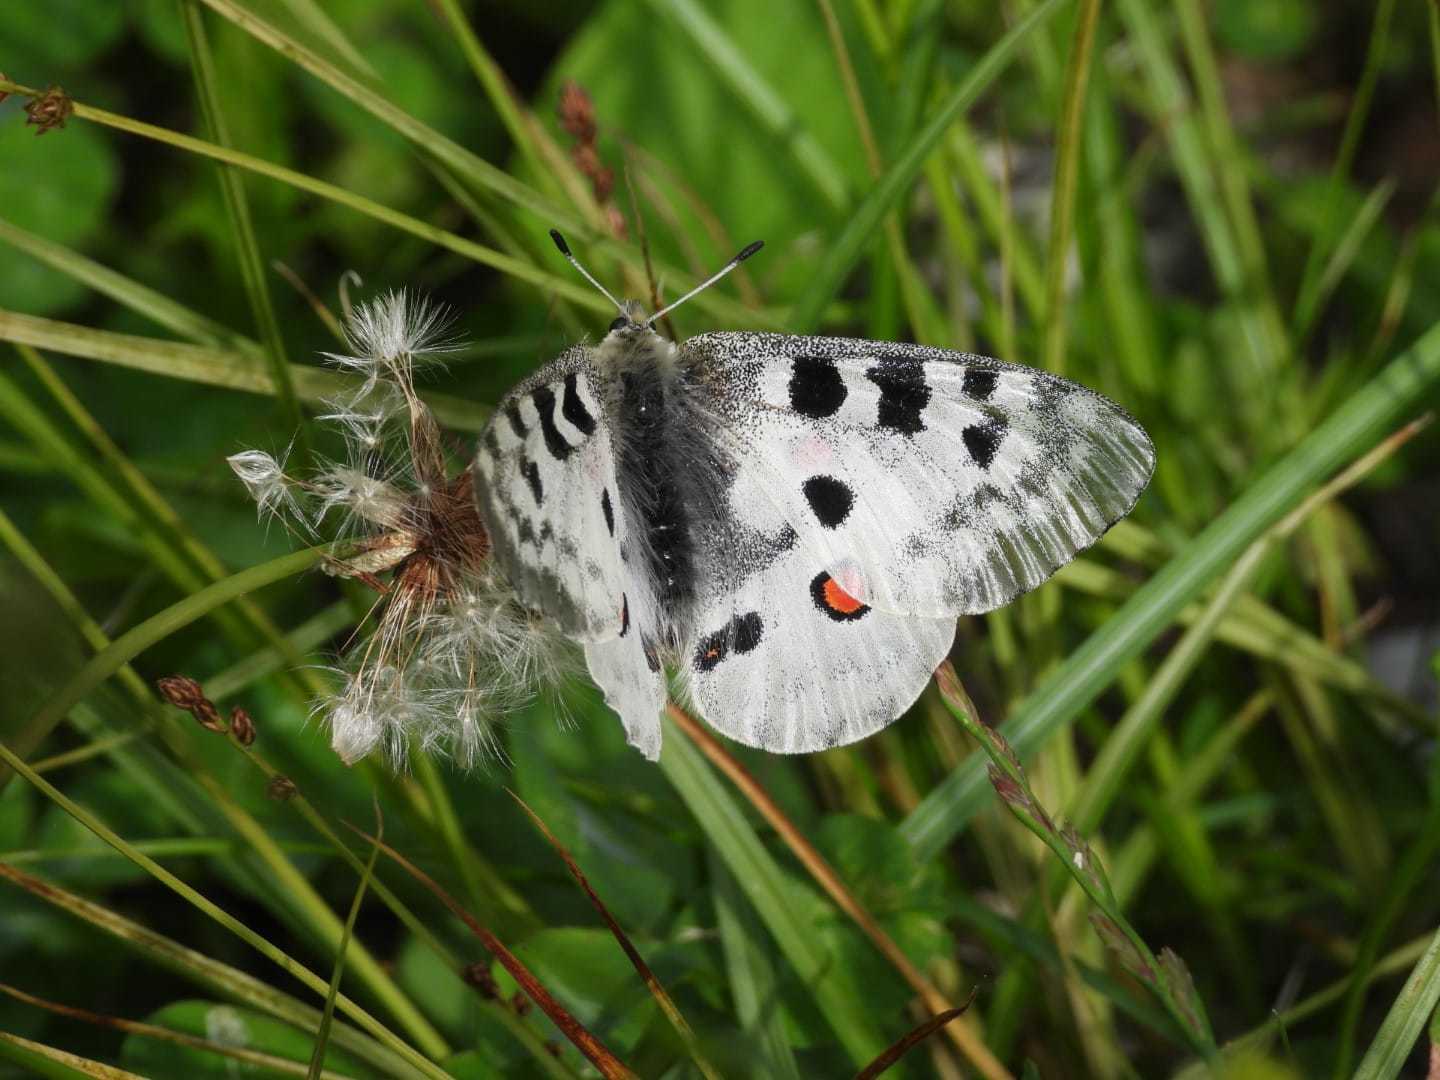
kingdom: Animalia
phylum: Arthropoda
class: Insecta
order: Lepidoptera
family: Papilionidae
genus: Parnassius
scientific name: Parnassius apollo
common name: Apollo
